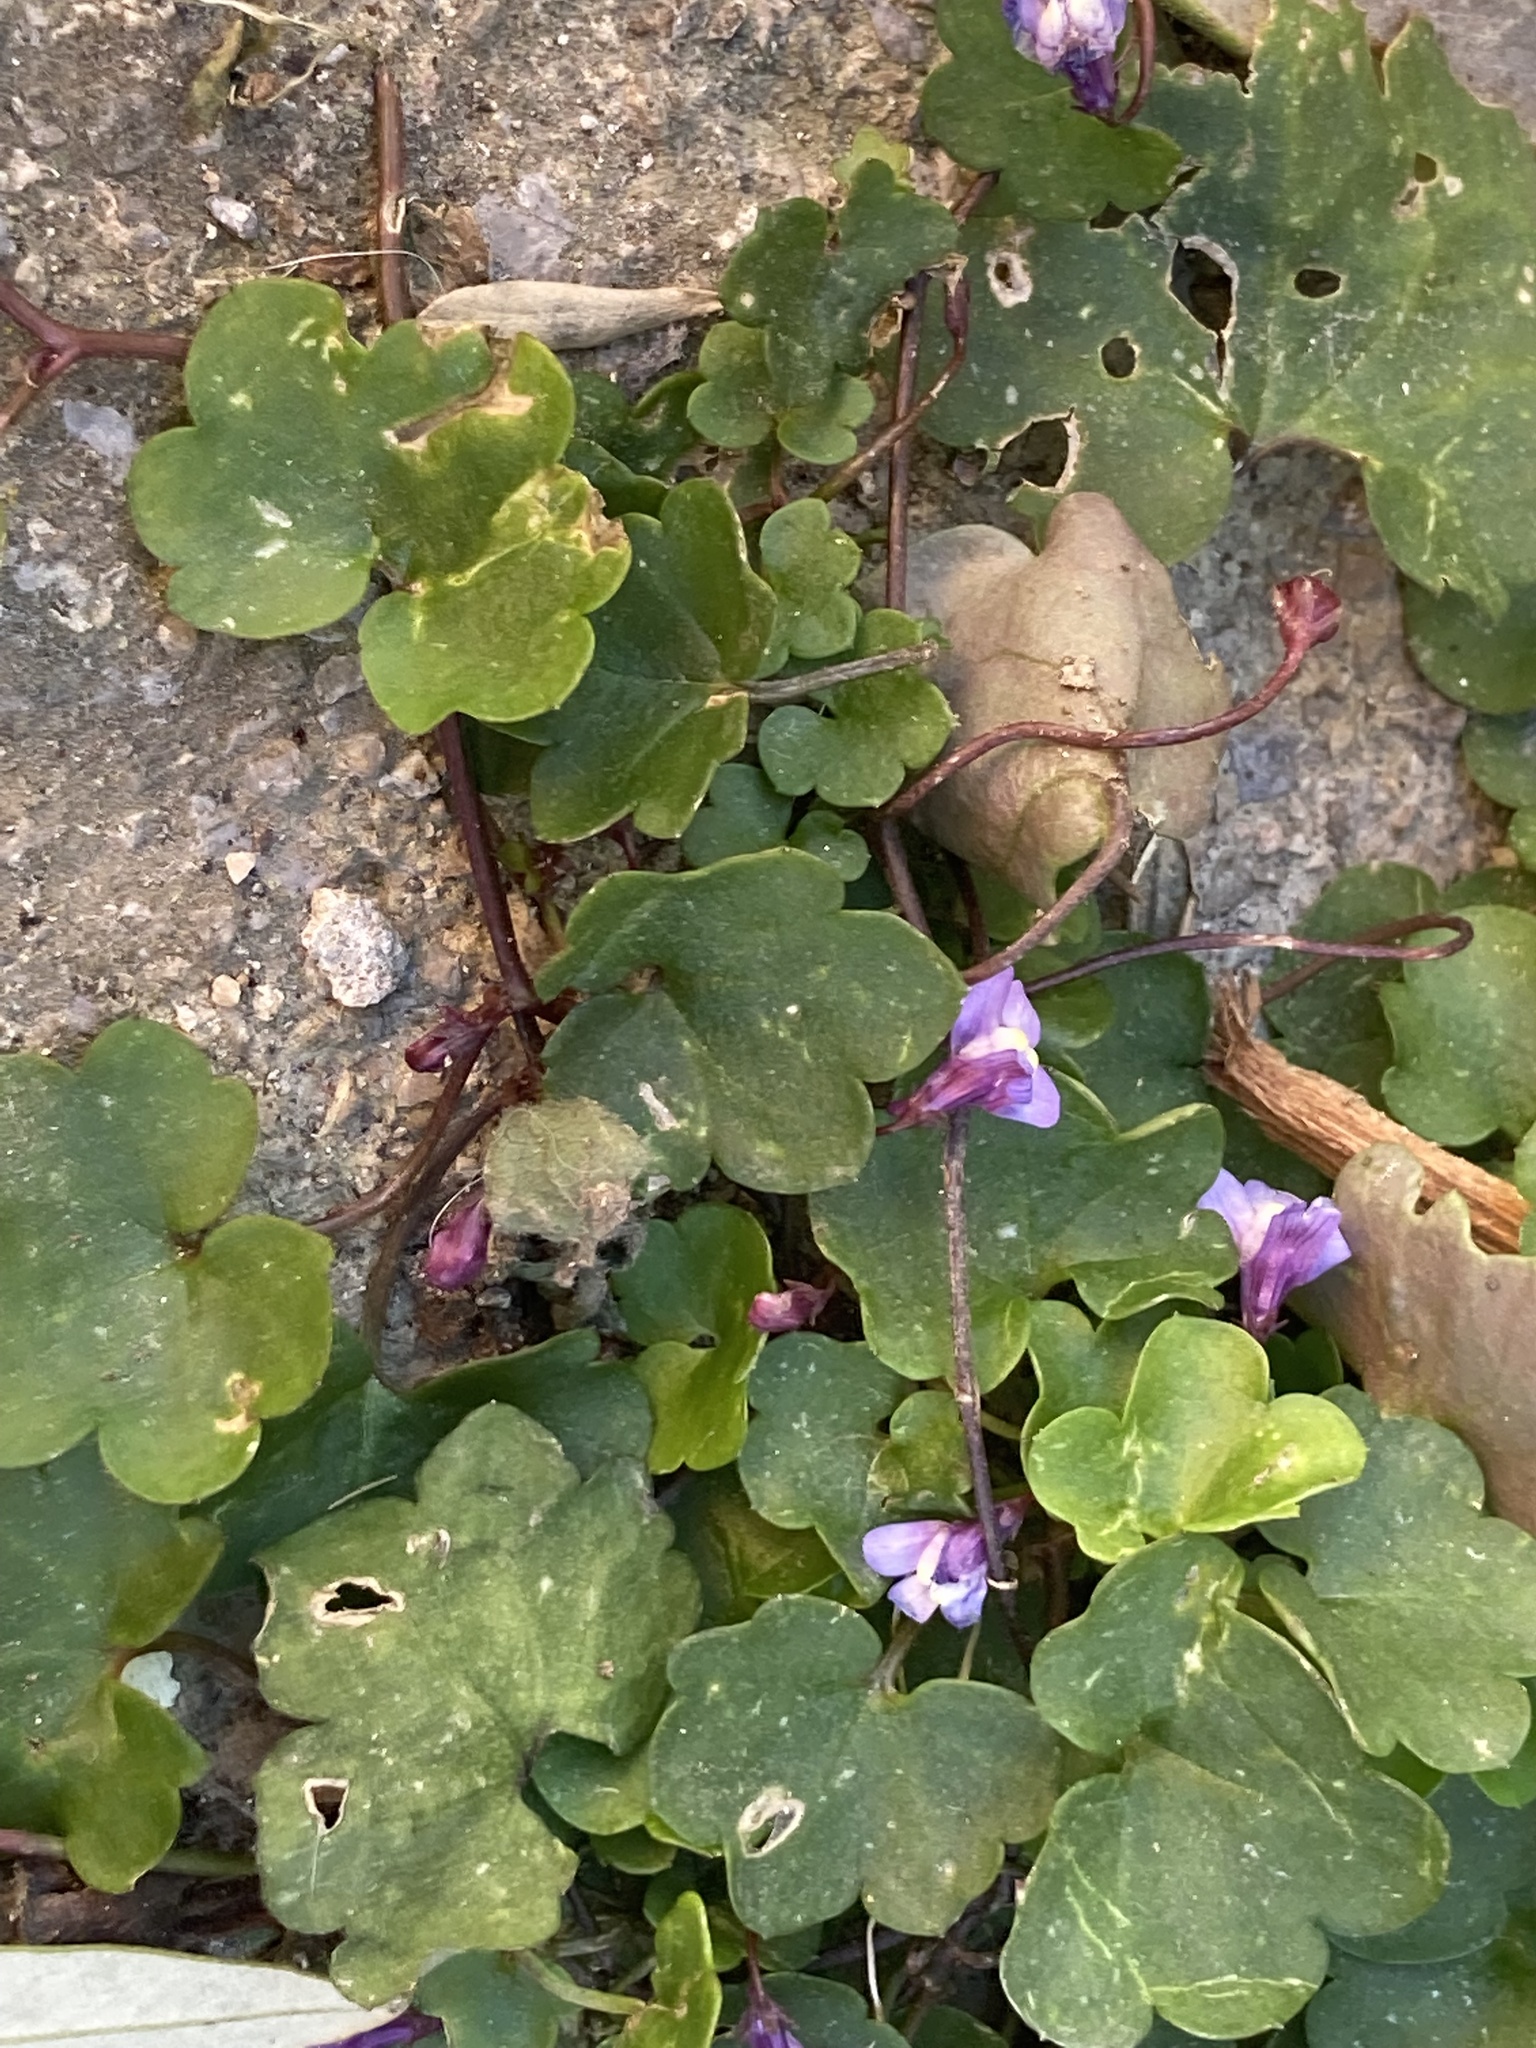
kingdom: Plantae
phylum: Tracheophyta
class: Magnoliopsida
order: Lamiales
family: Plantaginaceae
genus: Cymbalaria
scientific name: Cymbalaria muralis
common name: Ivy-leaved toadflax
